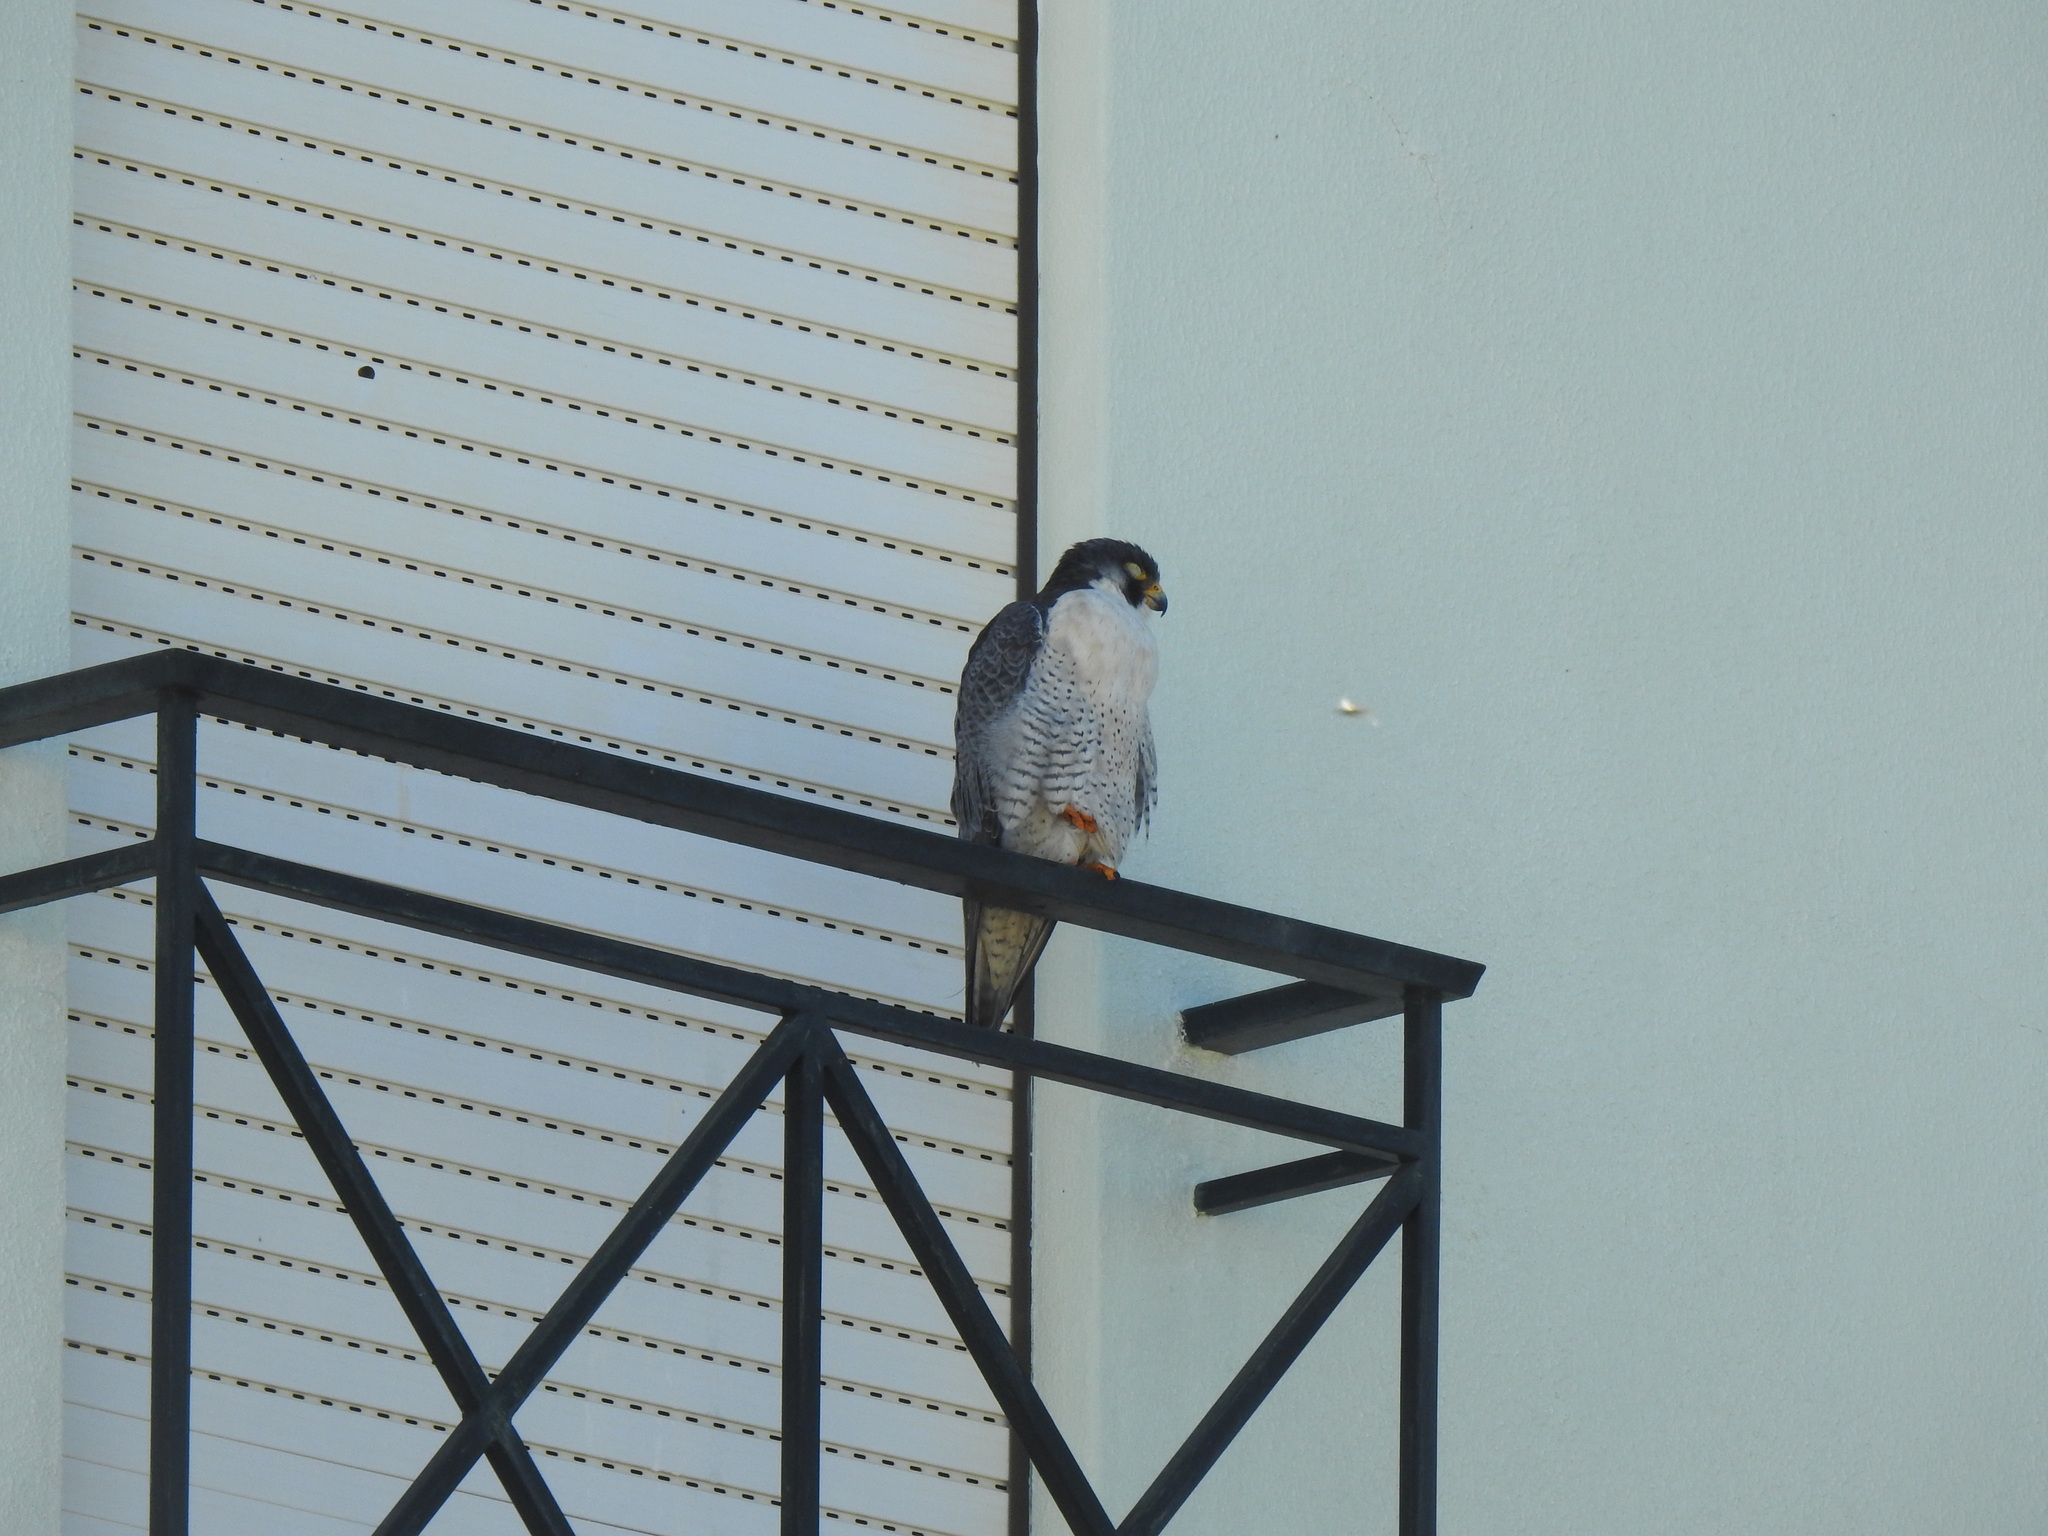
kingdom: Animalia
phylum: Chordata
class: Aves
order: Falconiformes
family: Falconidae
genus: Falco
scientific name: Falco peregrinus
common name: Peregrine falcon
